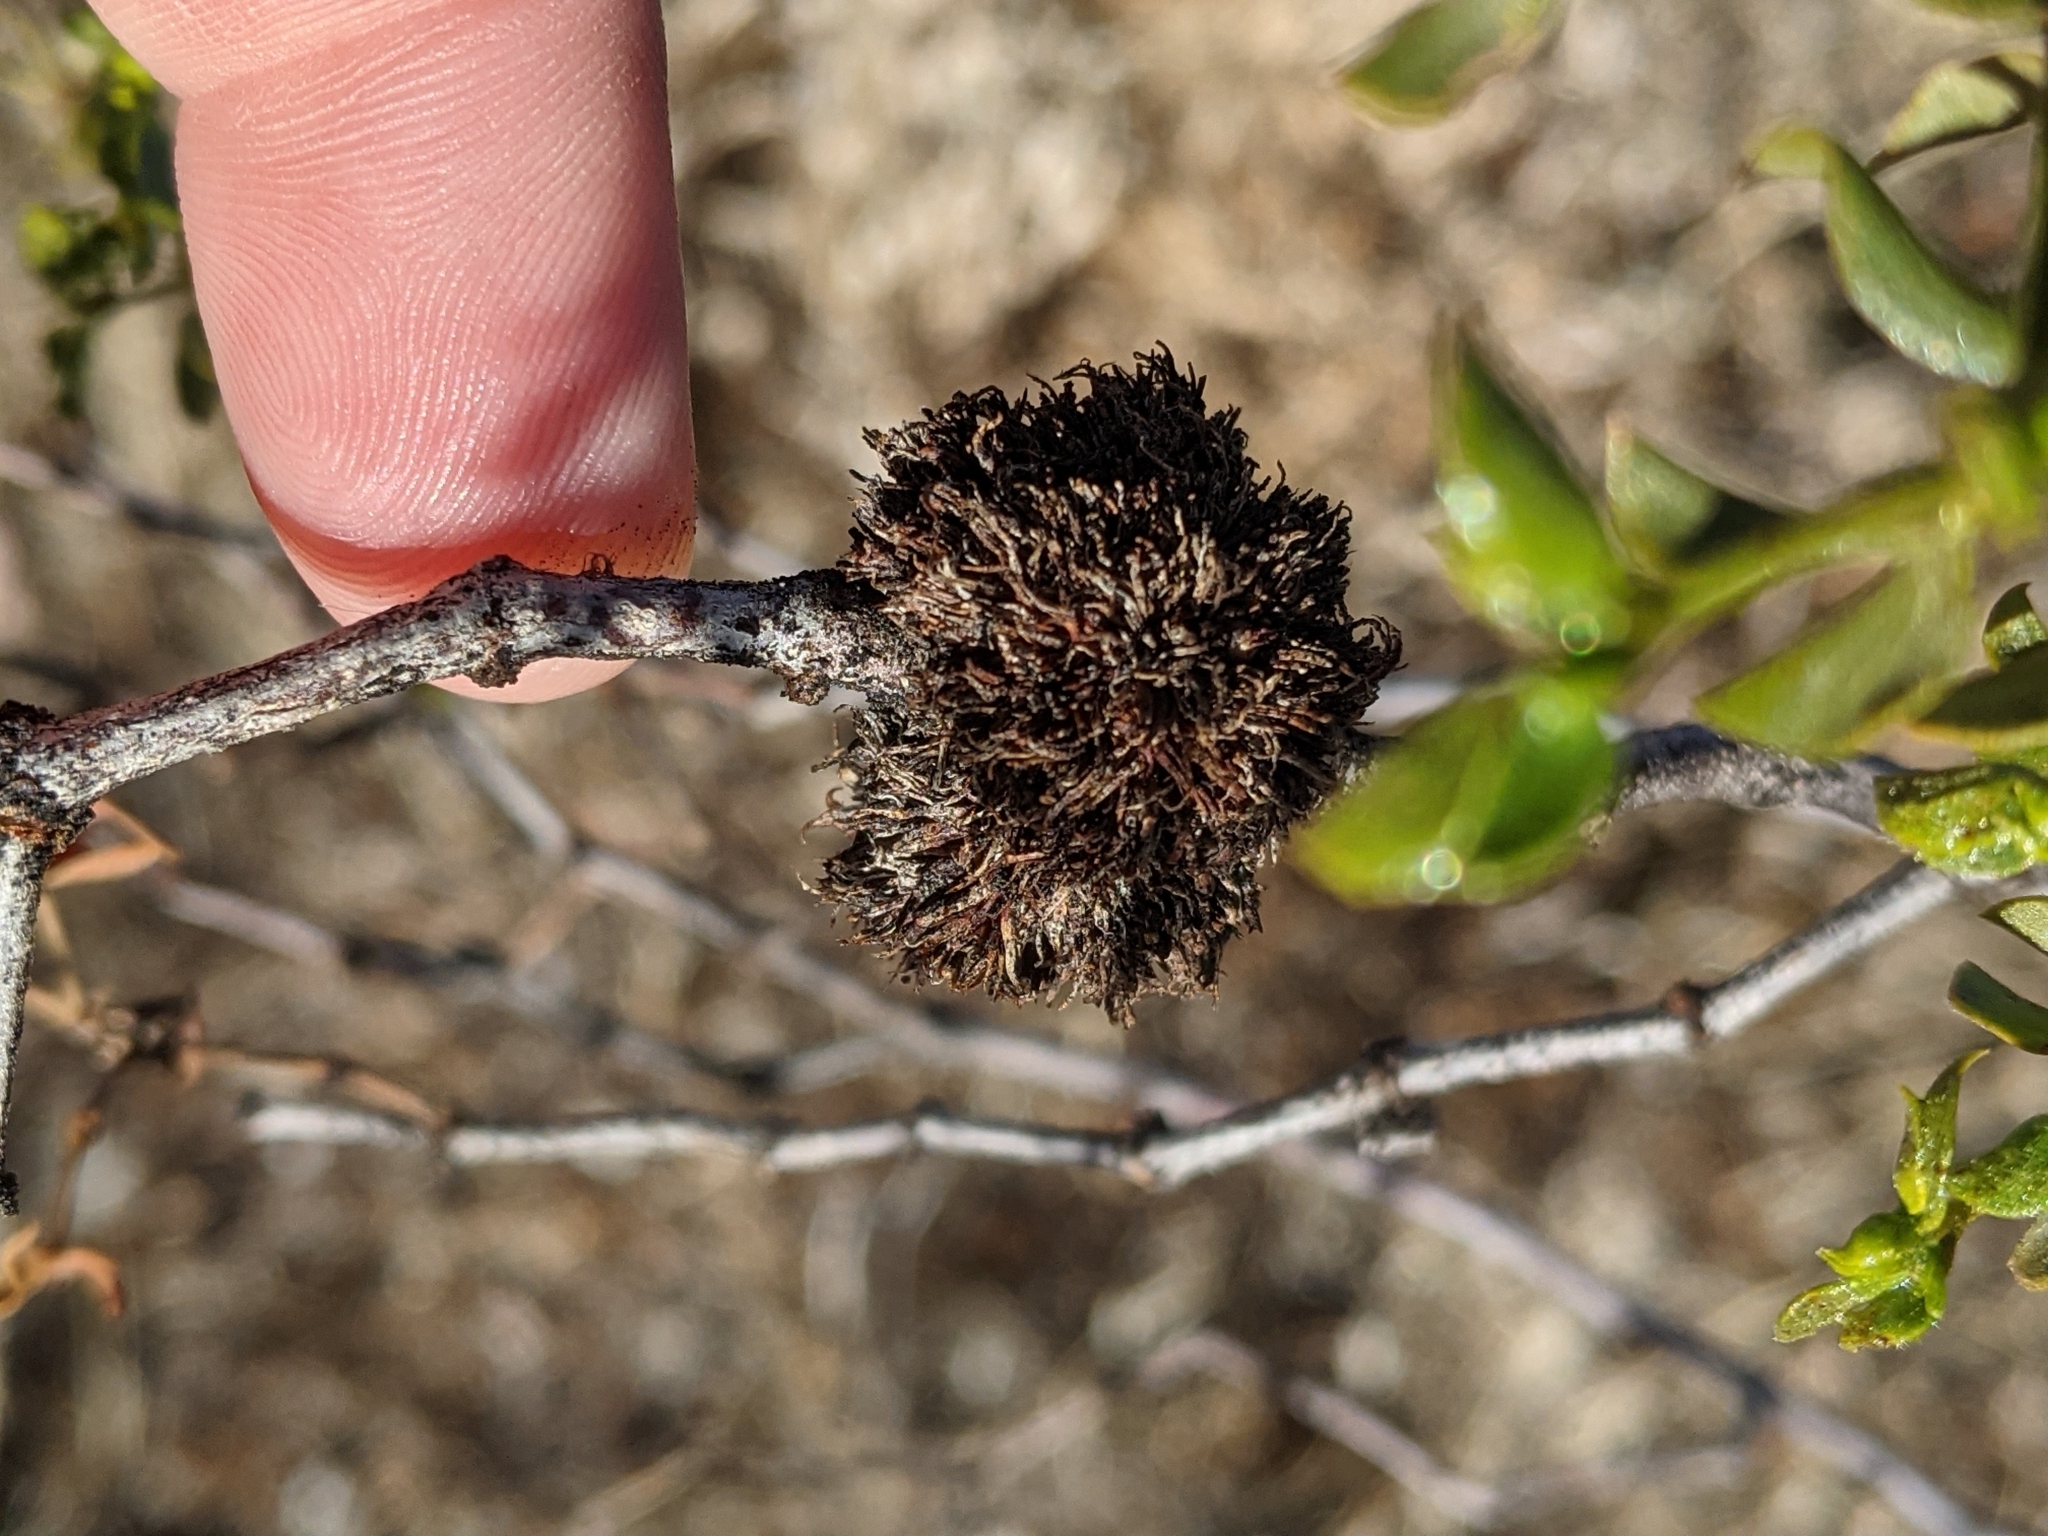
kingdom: Animalia
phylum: Arthropoda
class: Insecta
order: Diptera
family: Cecidomyiidae
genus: Asphondylia
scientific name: Asphondylia auripila
